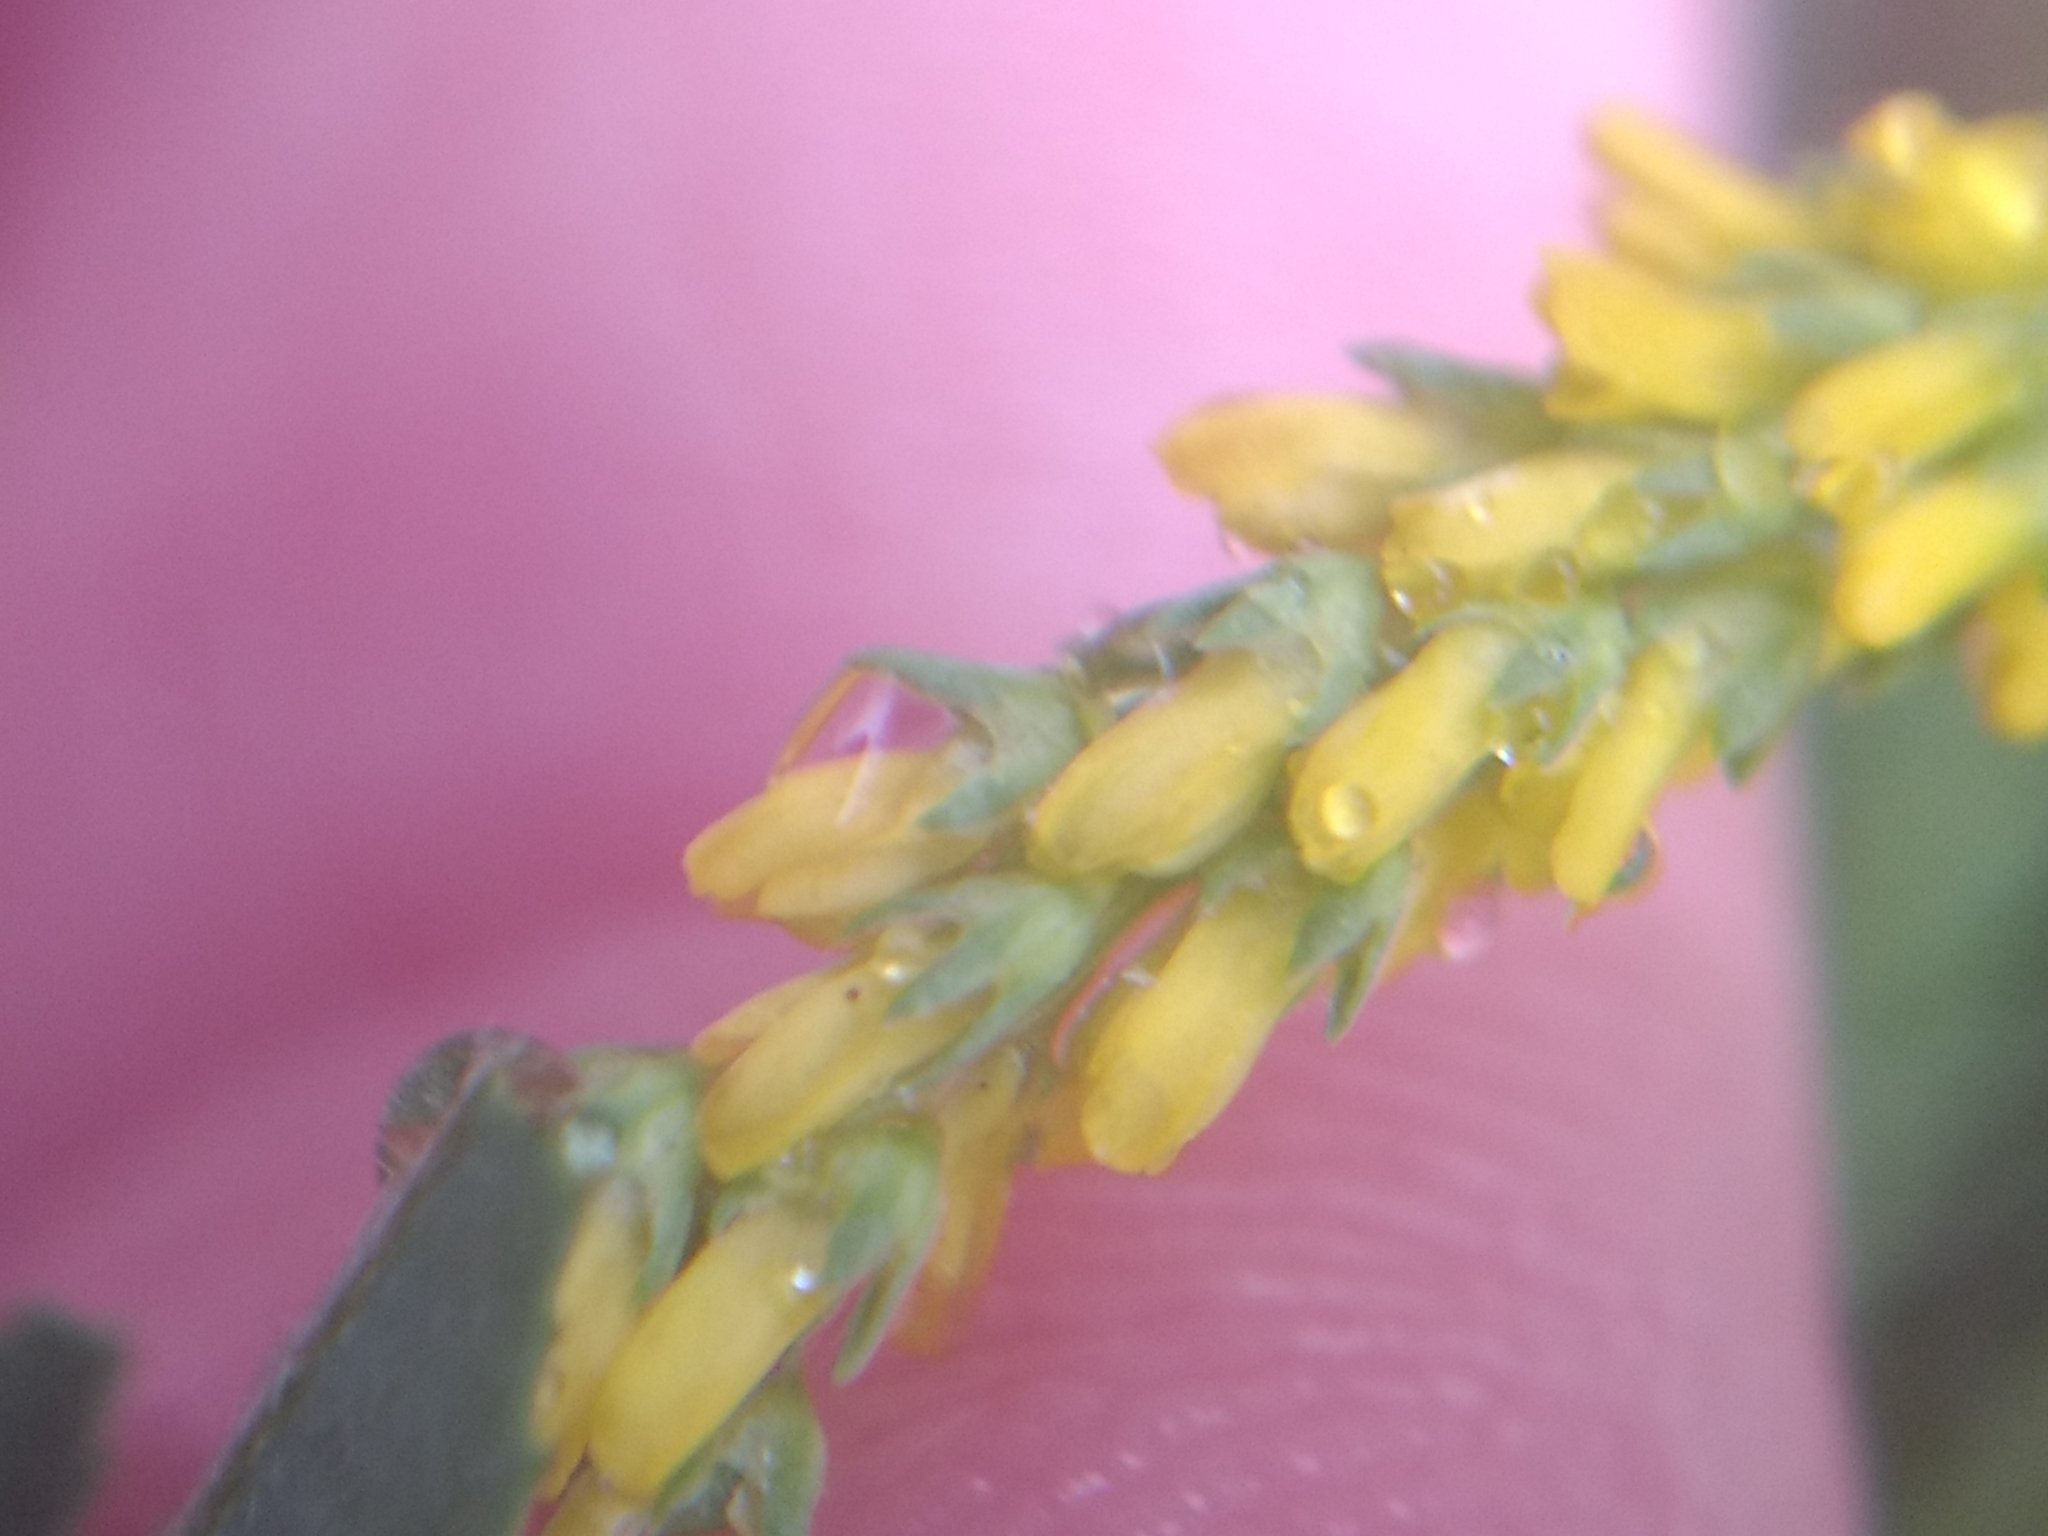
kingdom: Plantae
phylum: Tracheophyta
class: Magnoliopsida
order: Fabales
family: Fabaceae
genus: Melilotus
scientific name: Melilotus indicus
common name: Small melilot
